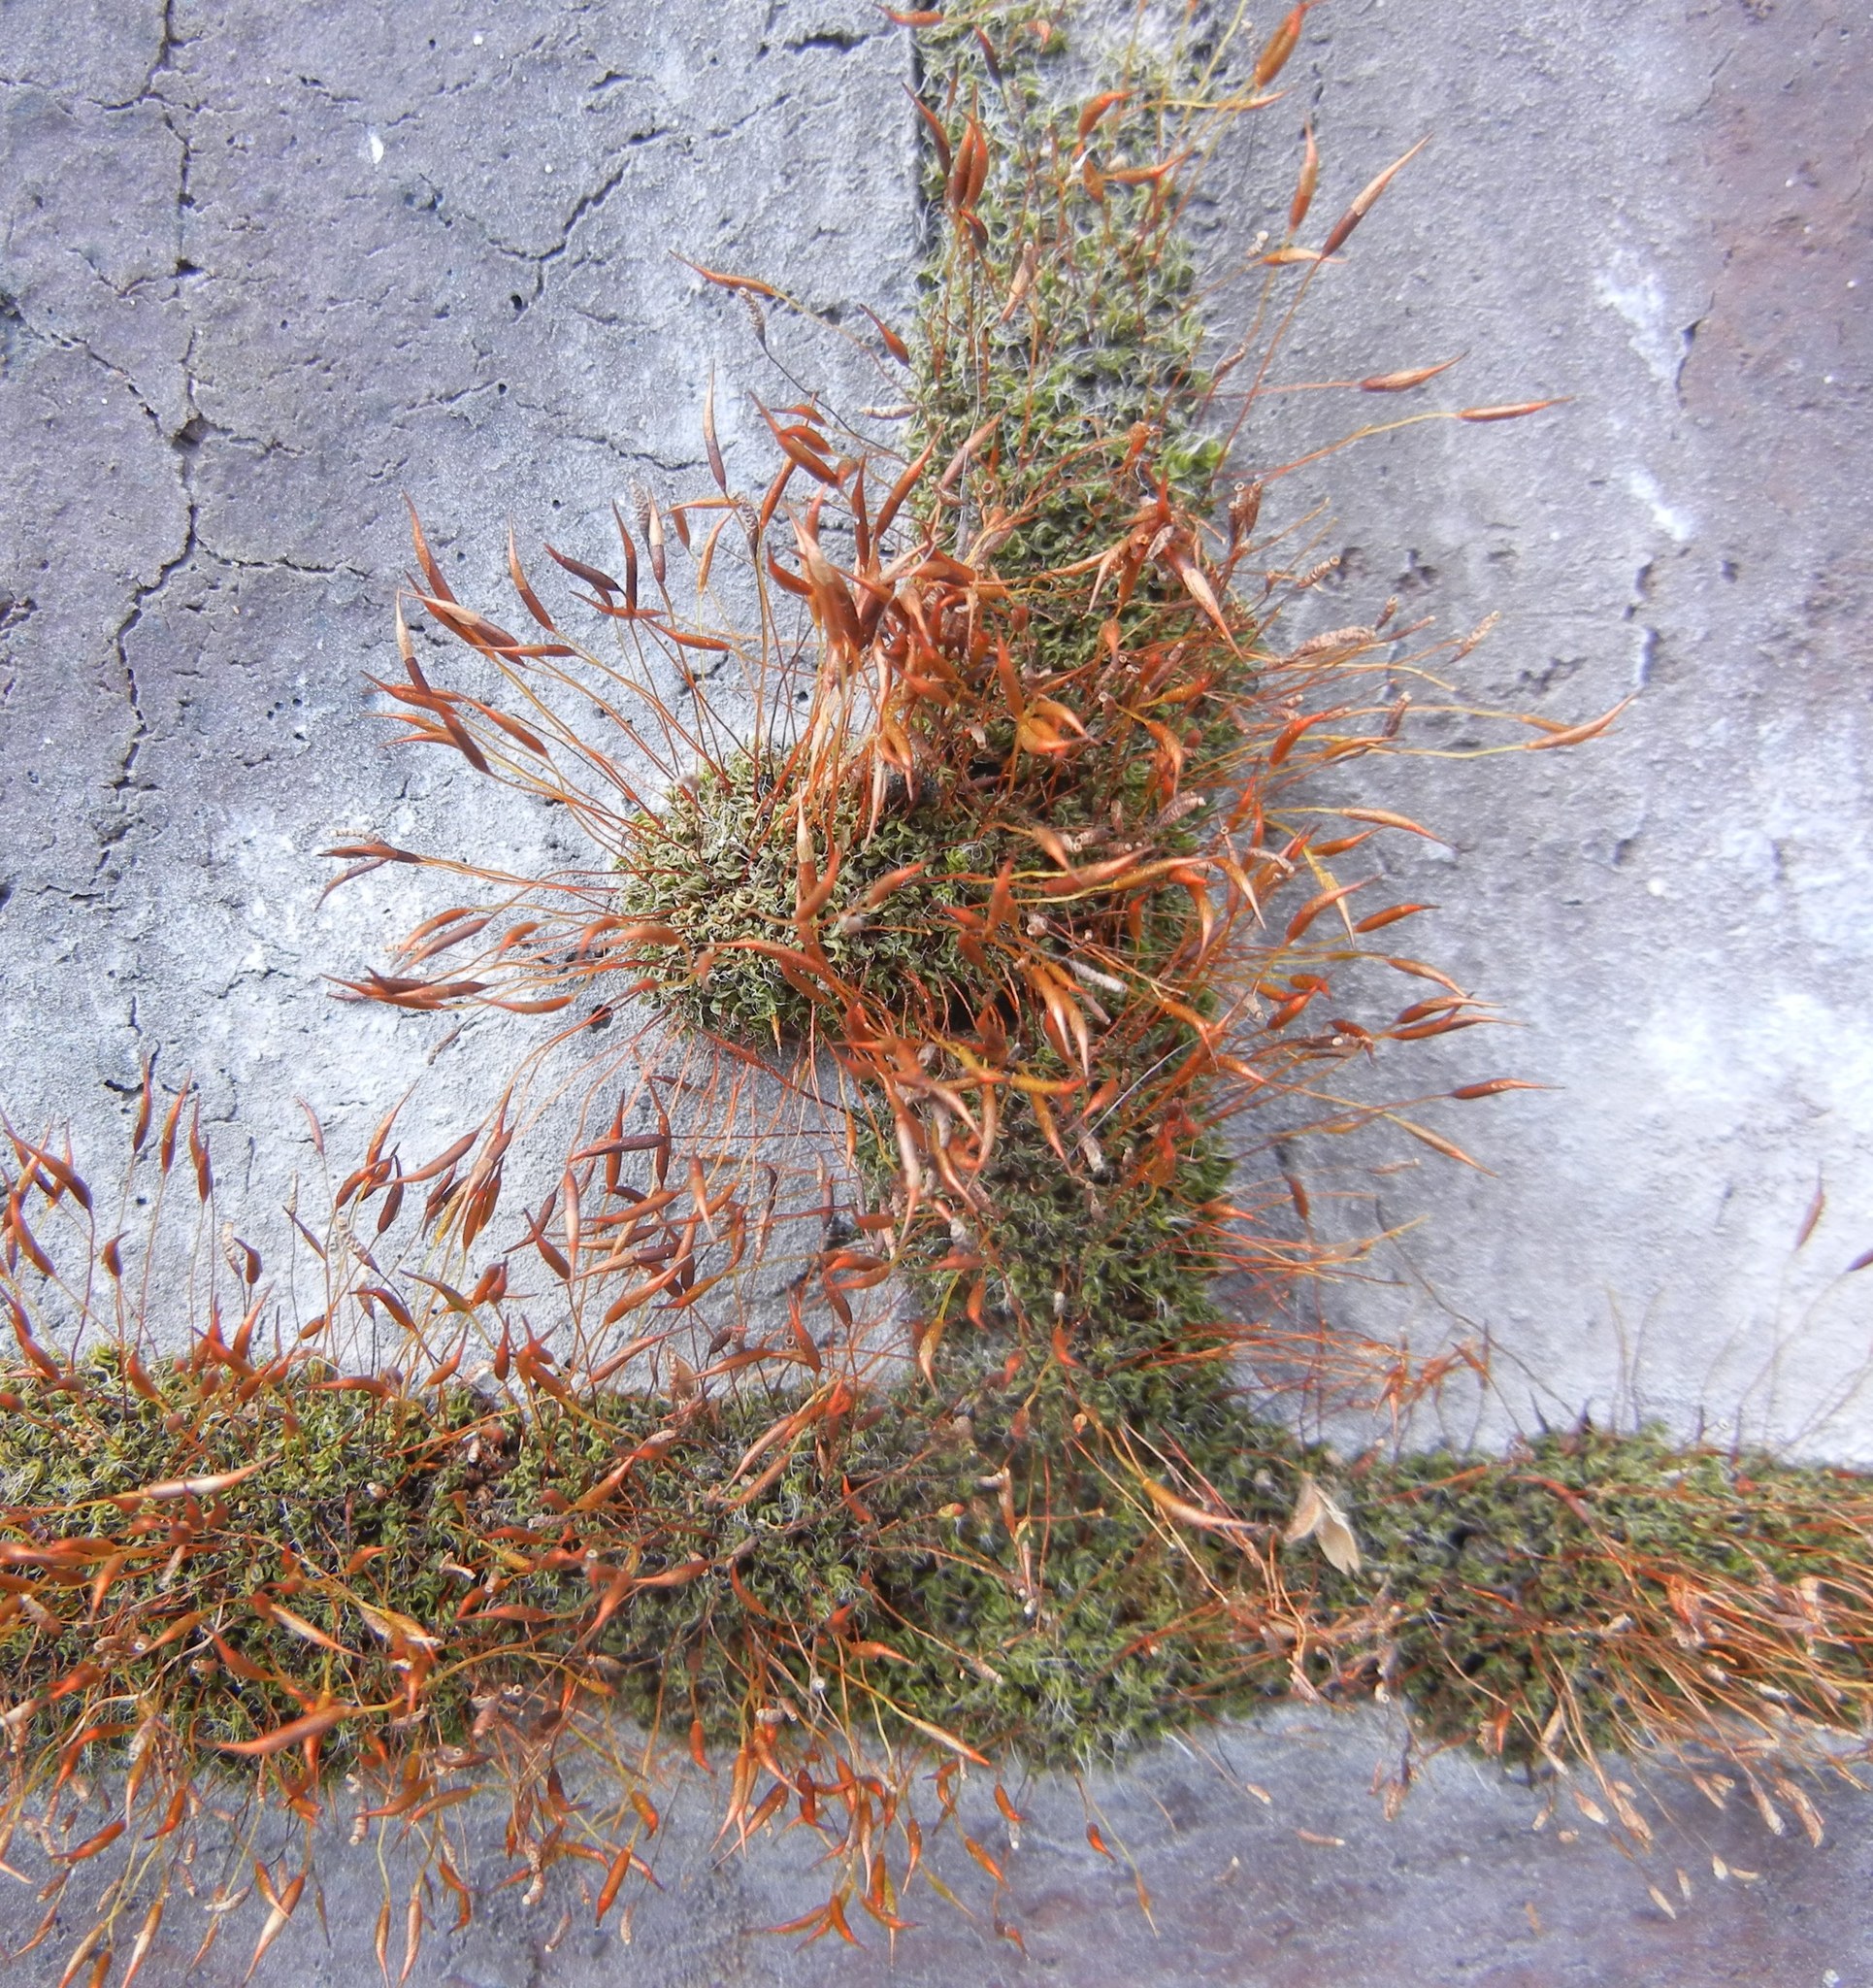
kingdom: Plantae
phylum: Bryophyta
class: Bryopsida
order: Pottiales
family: Pottiaceae
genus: Tortula
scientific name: Tortula muralis
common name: Wall screw-moss
